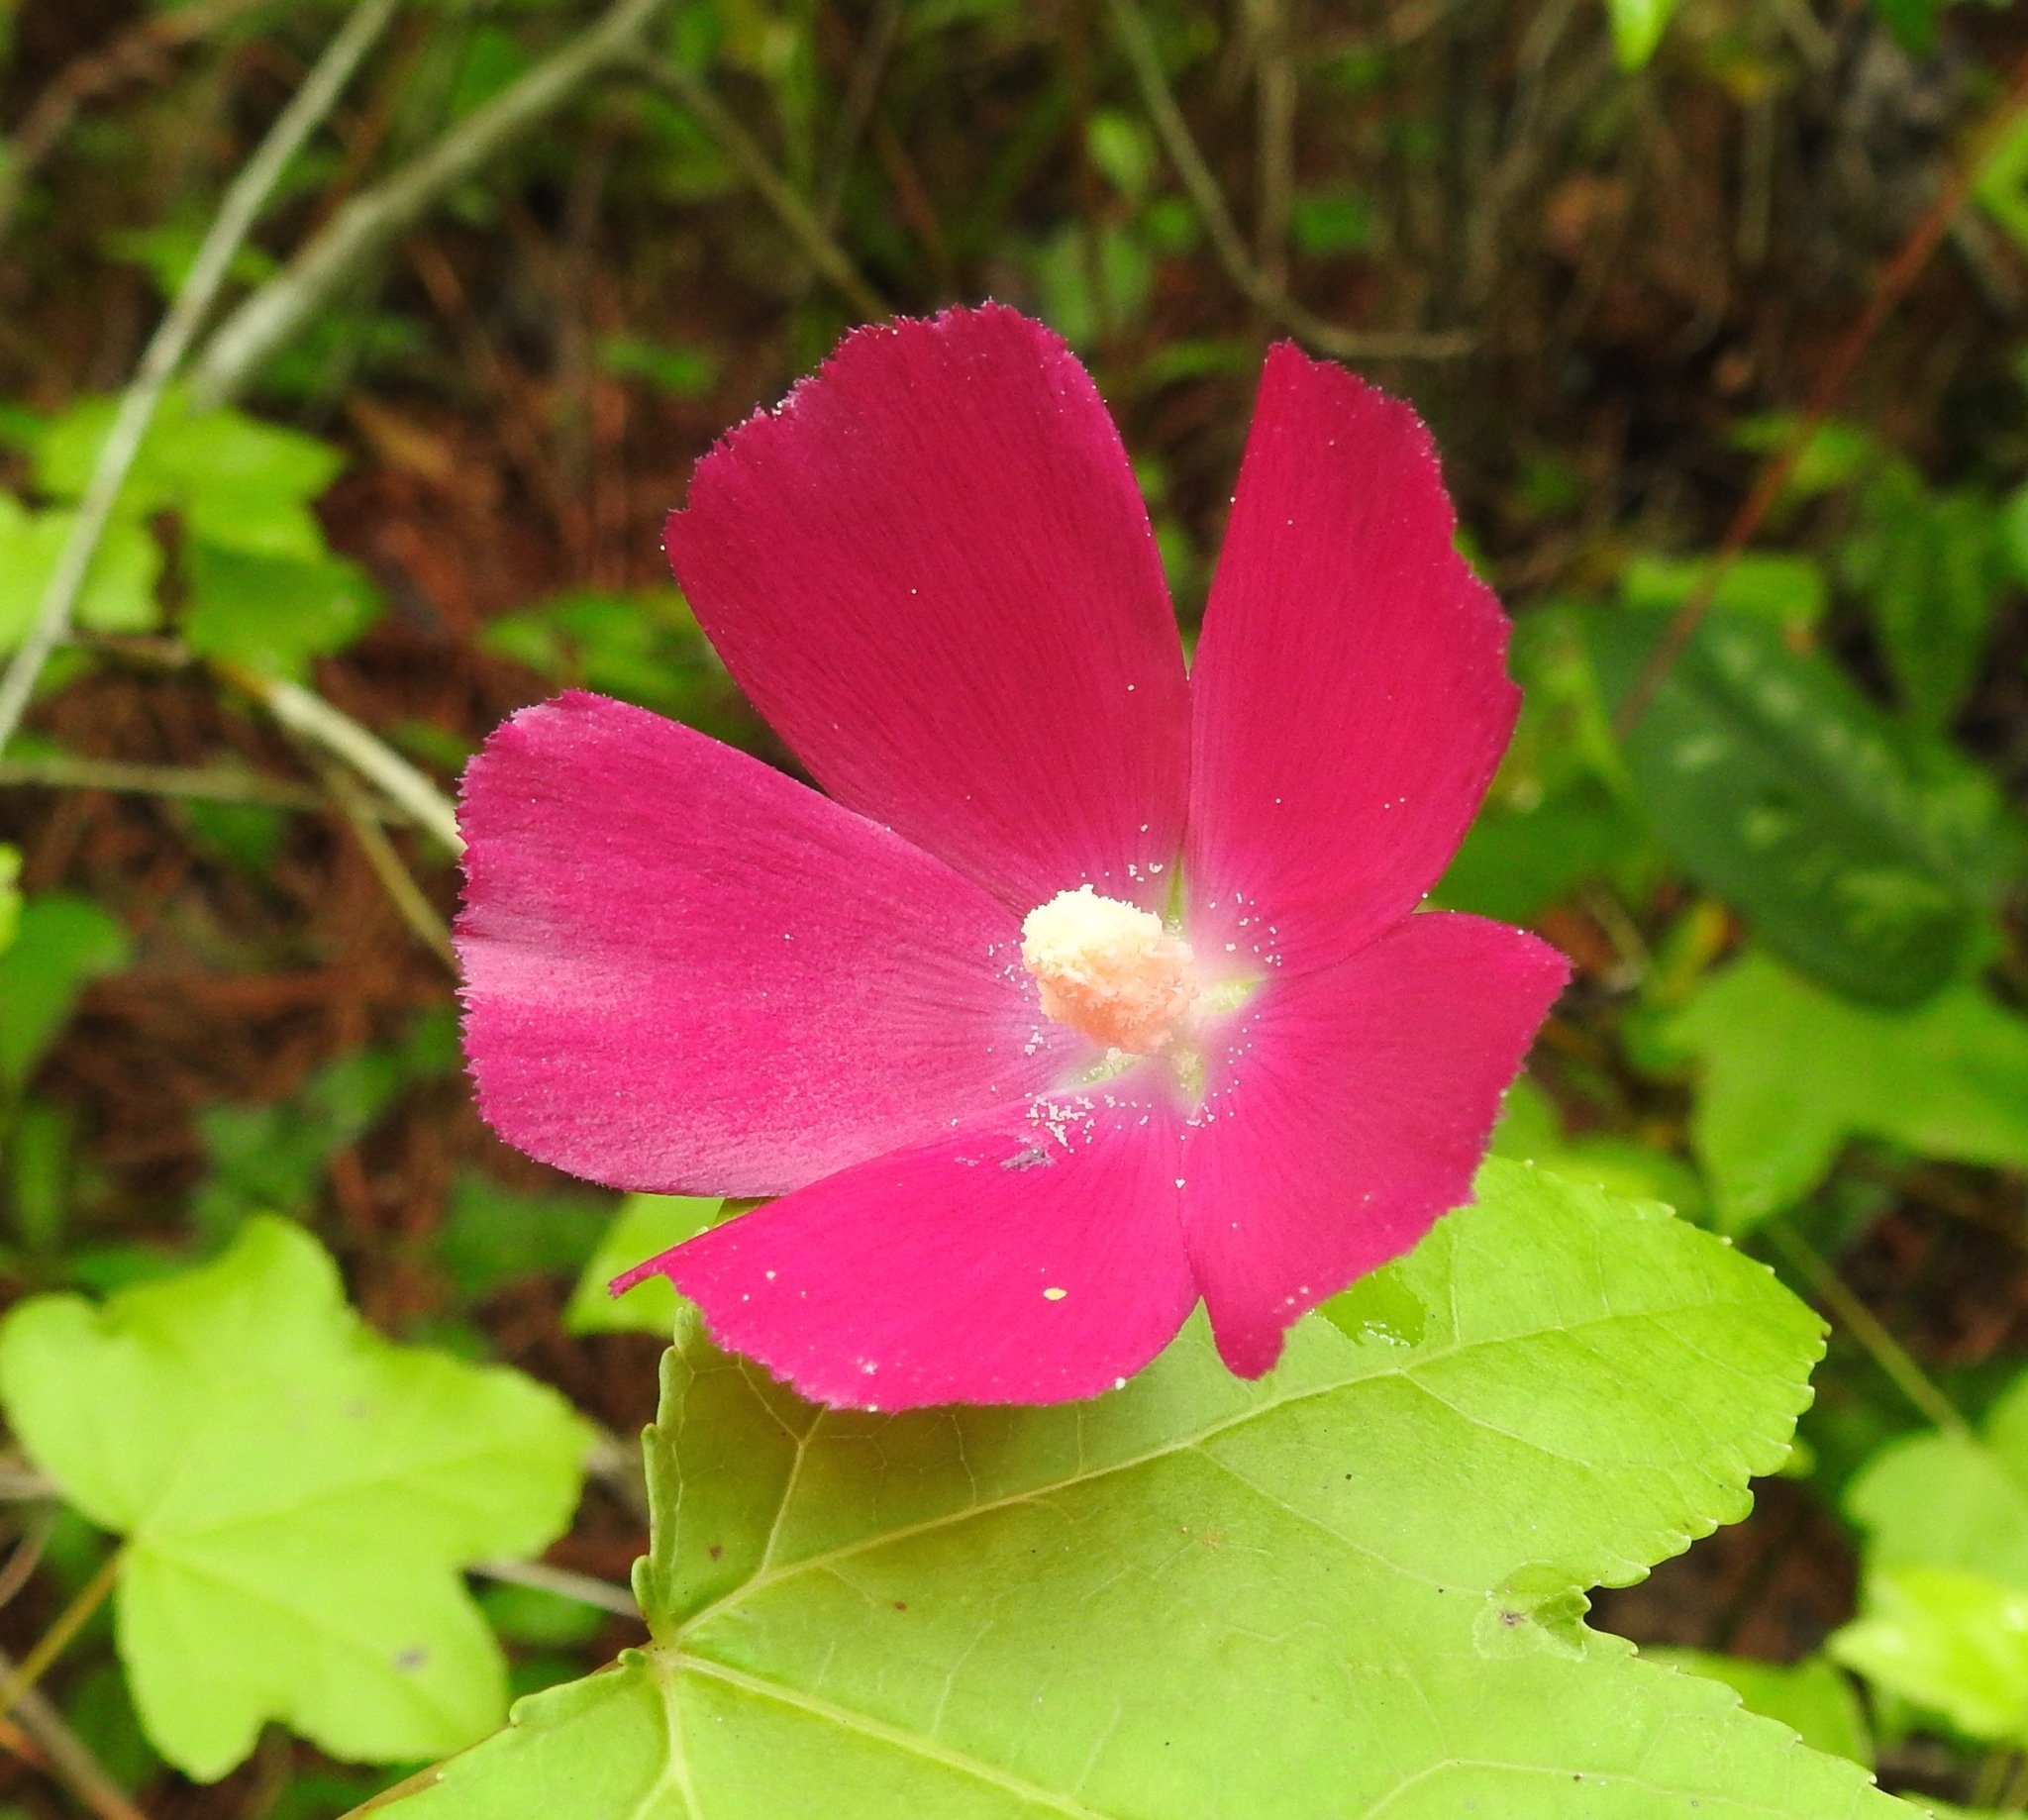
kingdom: Plantae
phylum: Tracheophyta
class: Magnoliopsida
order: Malvales
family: Malvaceae
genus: Callirhoe
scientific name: Callirhoe papaver
